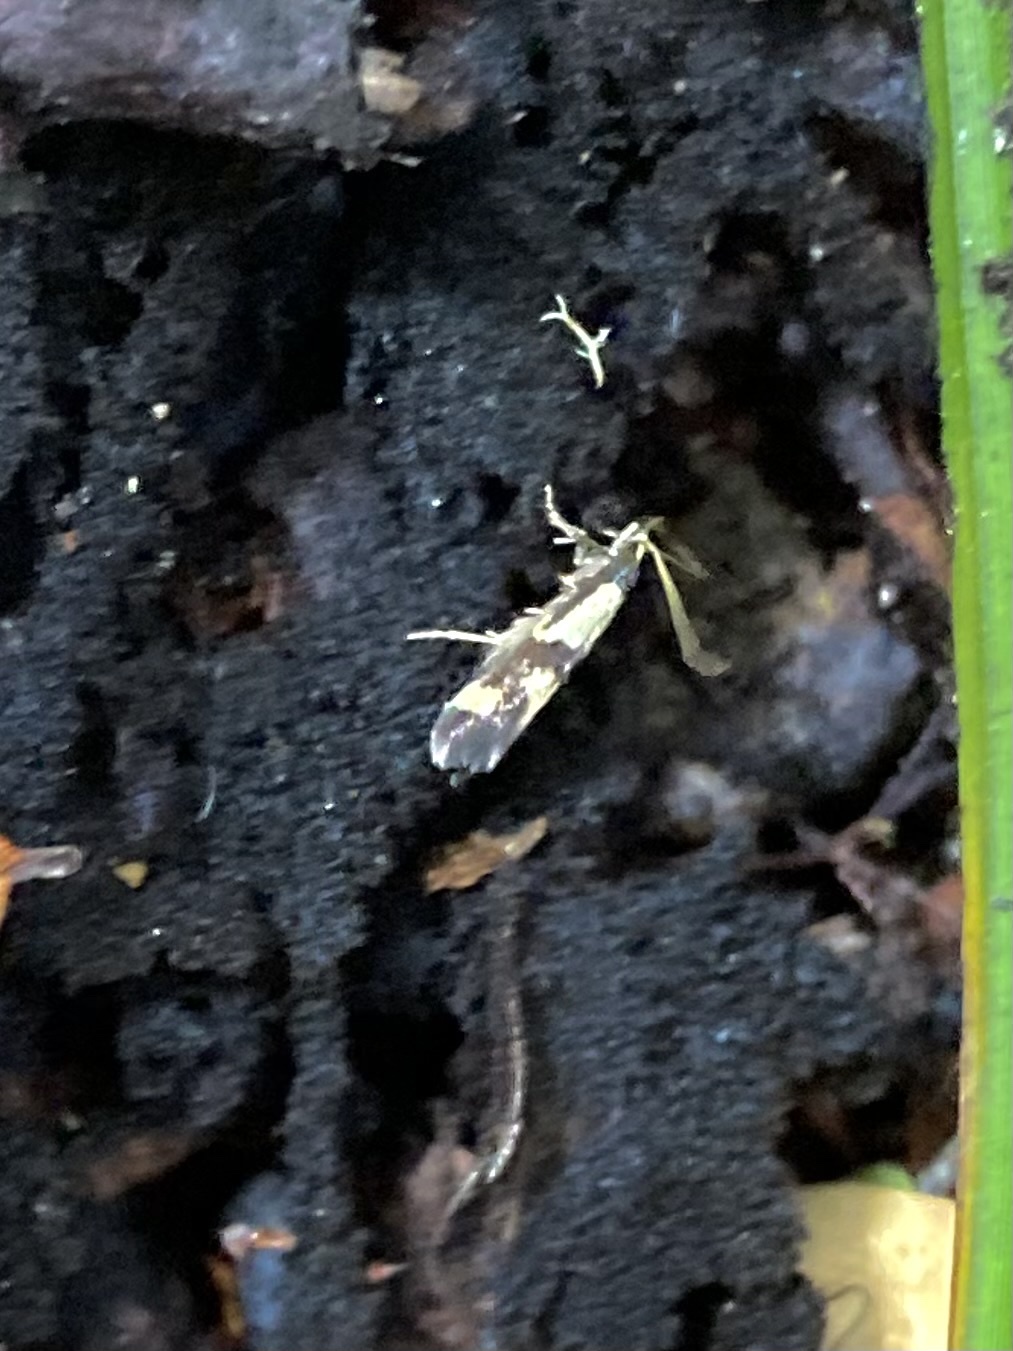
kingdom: Animalia
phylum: Arthropoda
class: Insecta
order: Lepidoptera
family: Tineidae
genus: Opogona
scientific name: Opogona comptella
